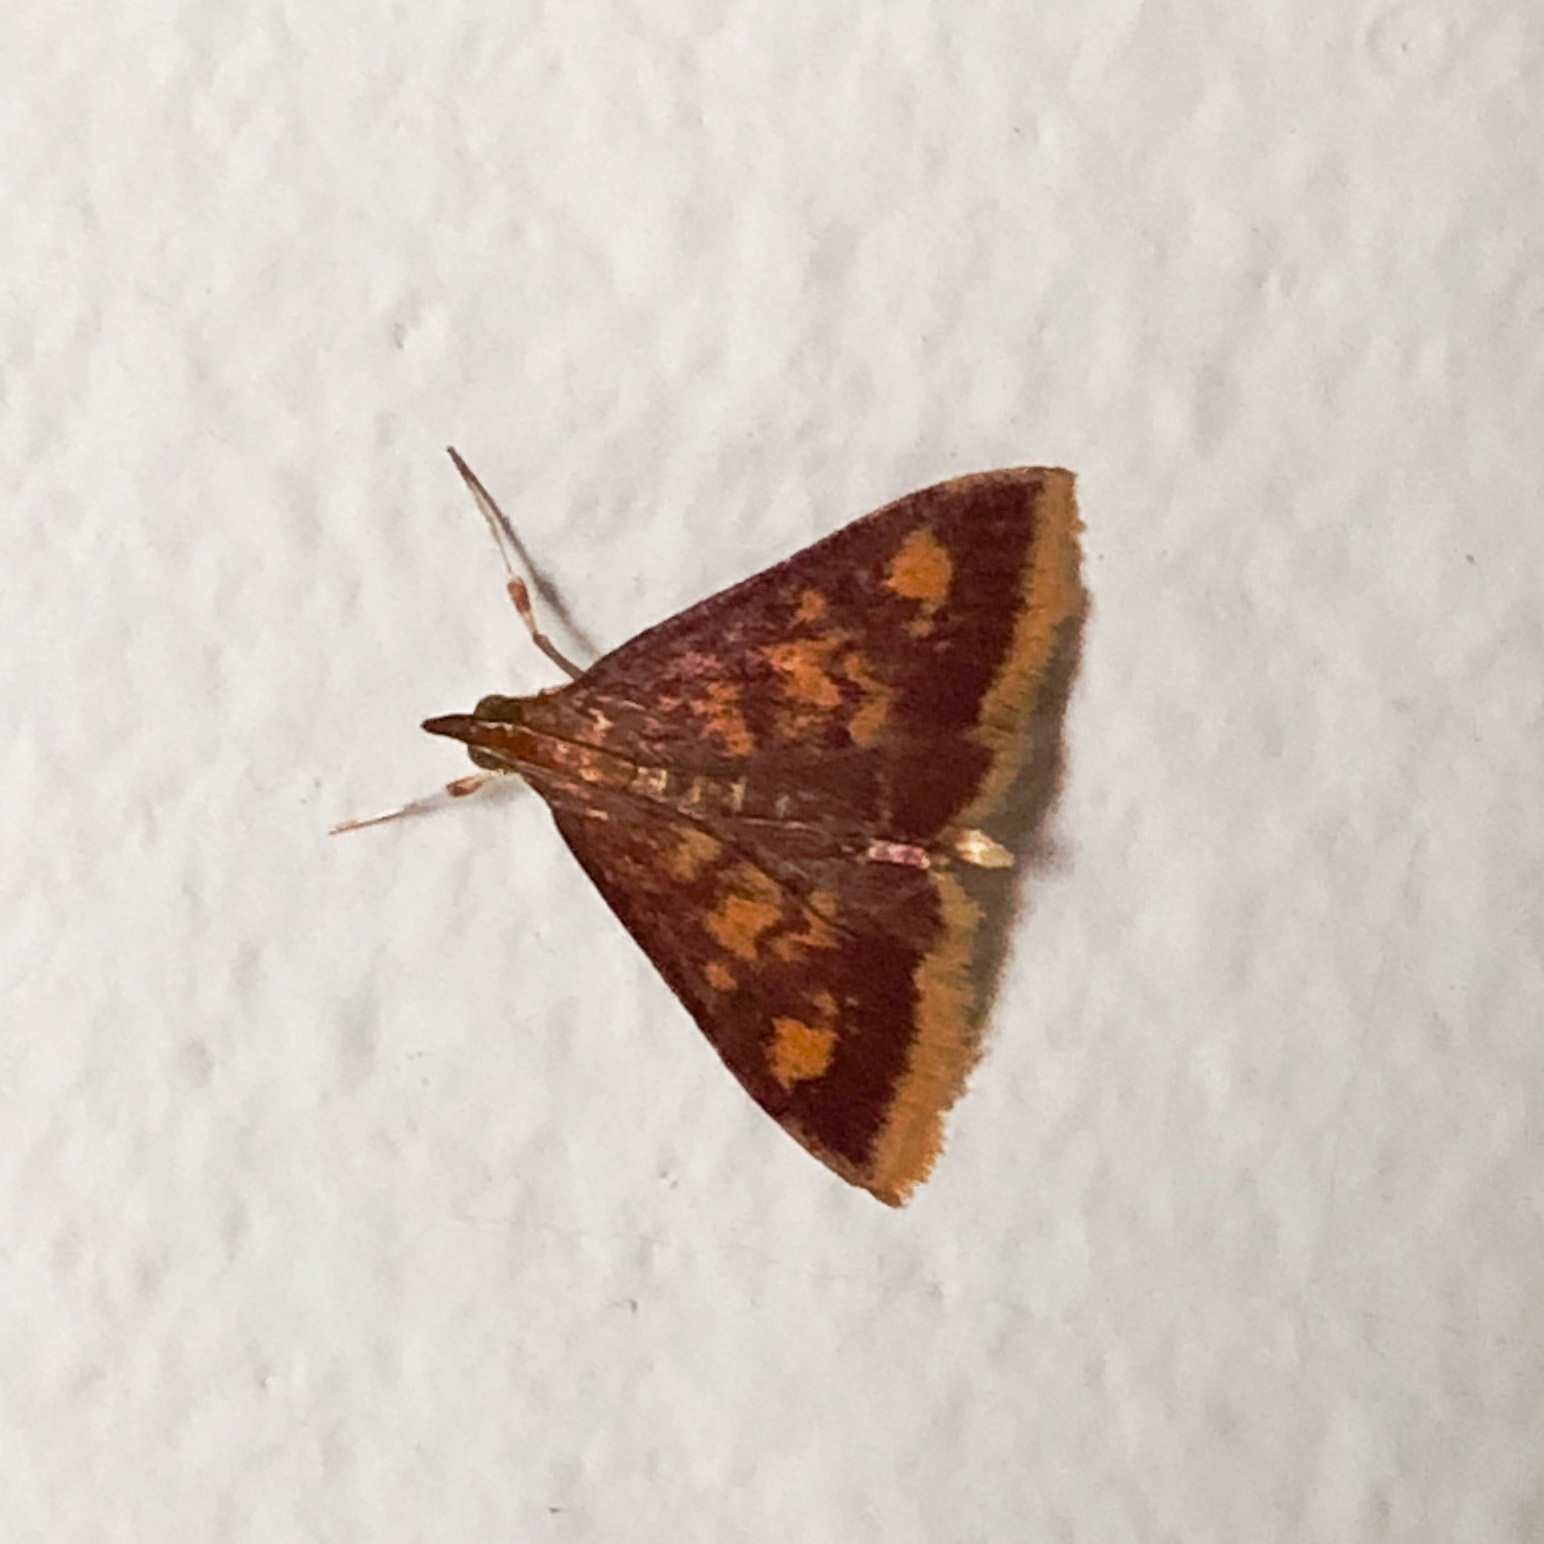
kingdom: Animalia
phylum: Arthropoda
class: Insecta
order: Lepidoptera
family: Crambidae
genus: Pyrausta
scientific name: Pyrausta acrionalis
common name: Mint-loving pyrausta moth
